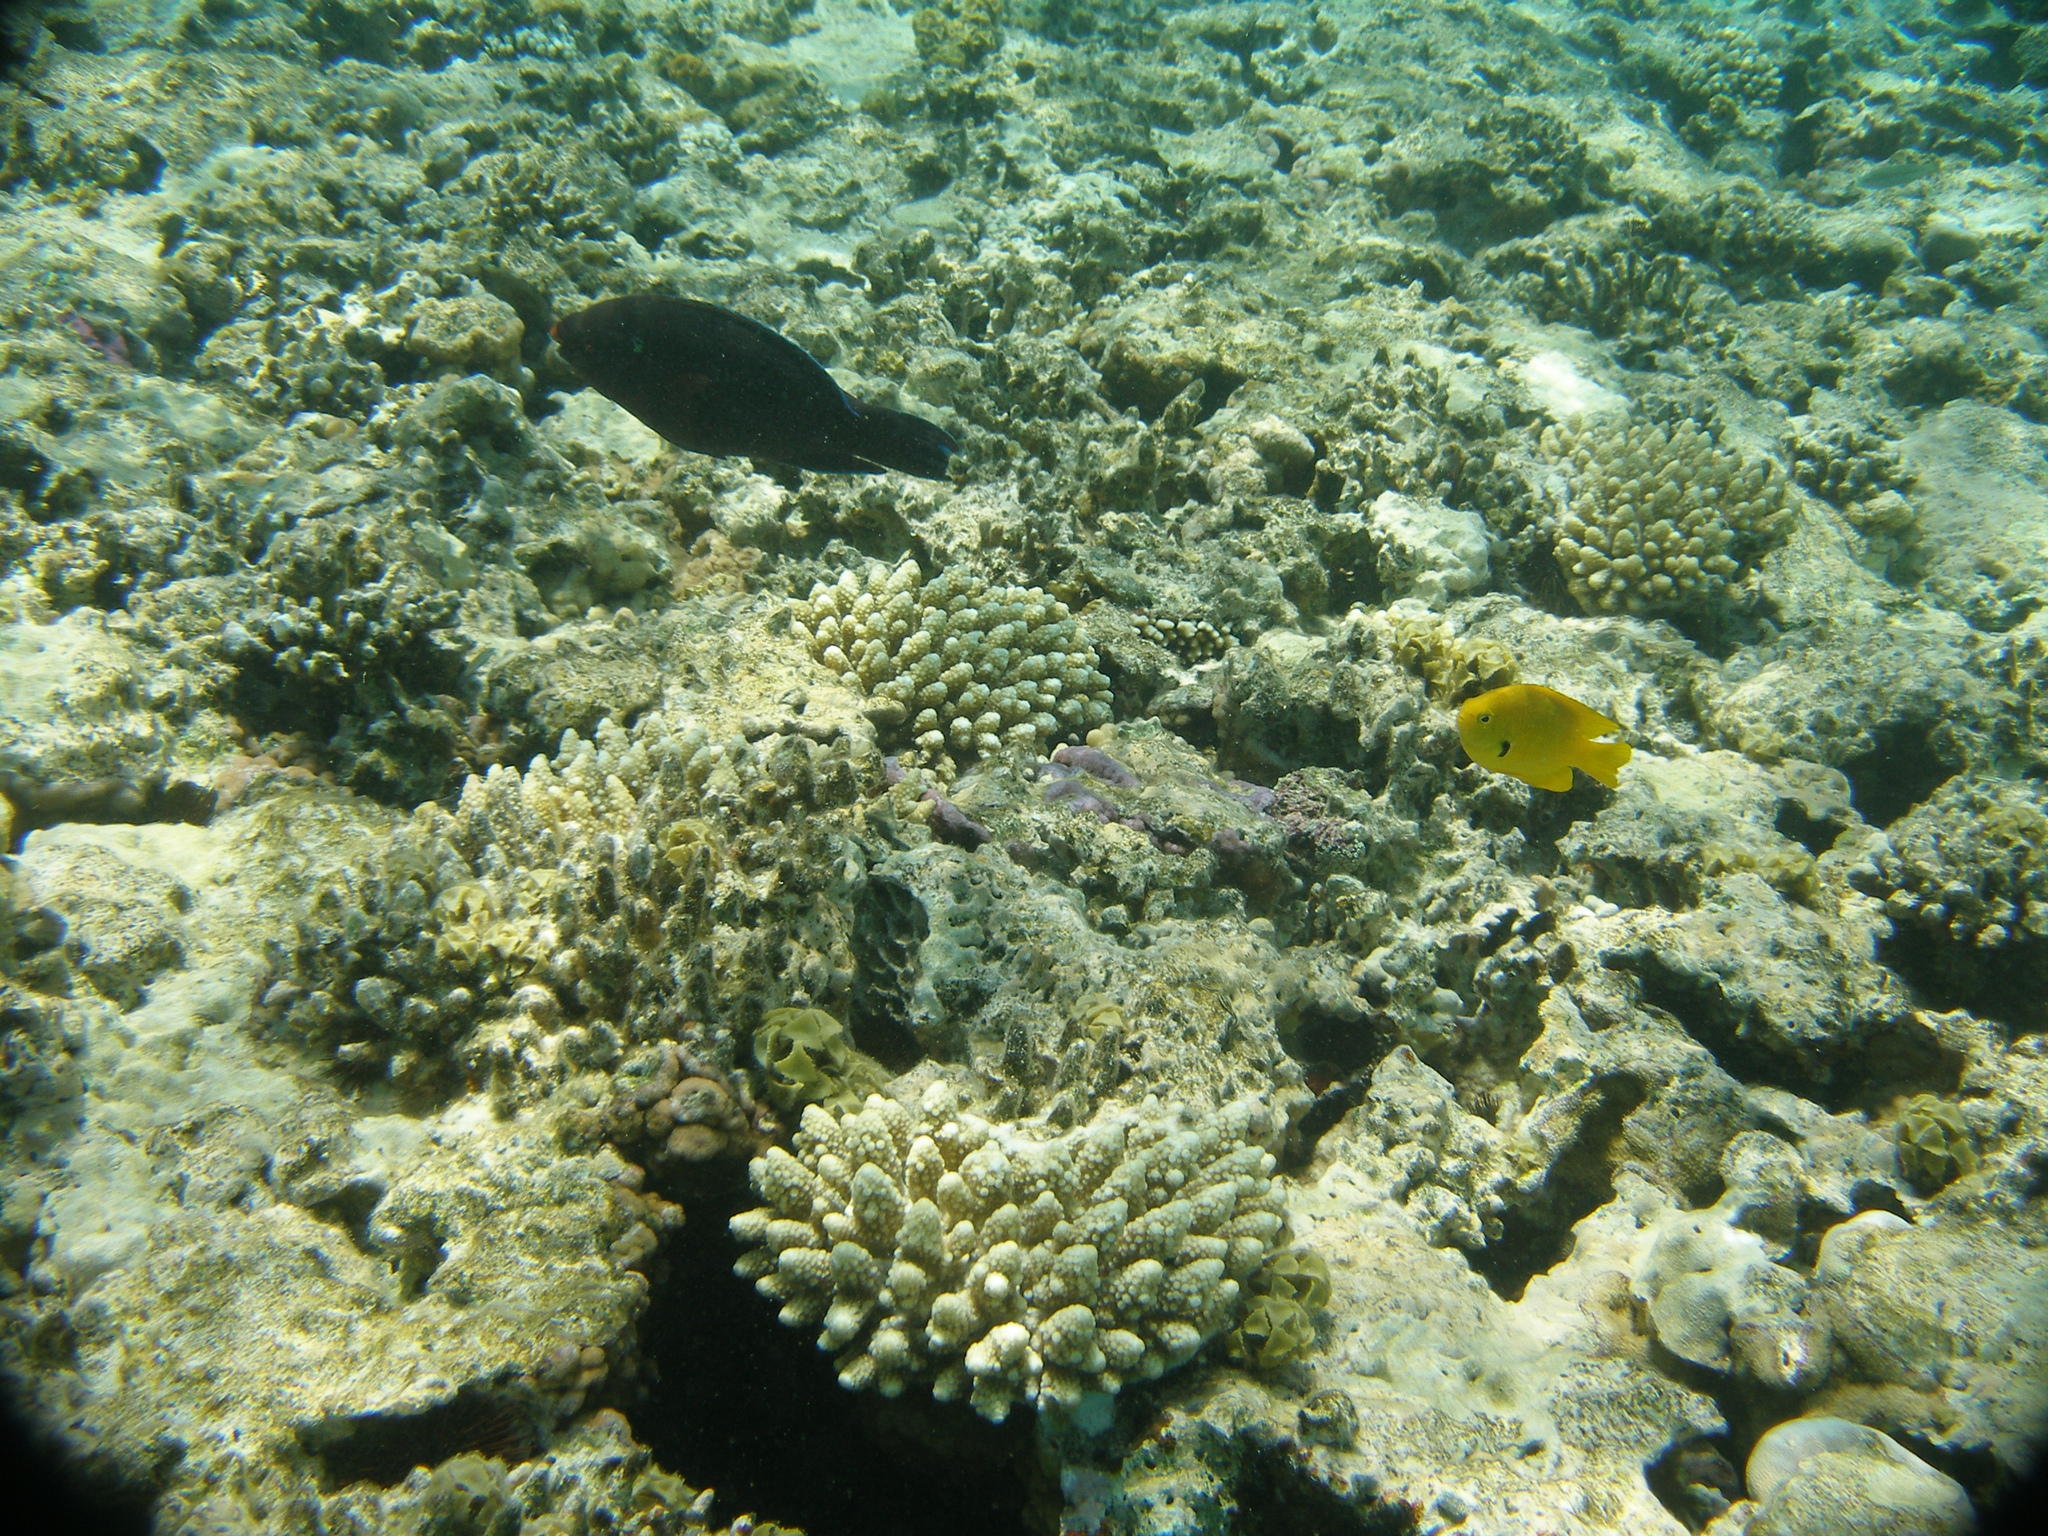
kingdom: Animalia
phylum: Chordata
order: Perciformes
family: Pomacentridae
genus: Pomacentrus
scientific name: Pomacentrus sulfureus
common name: Sulfur damsel
